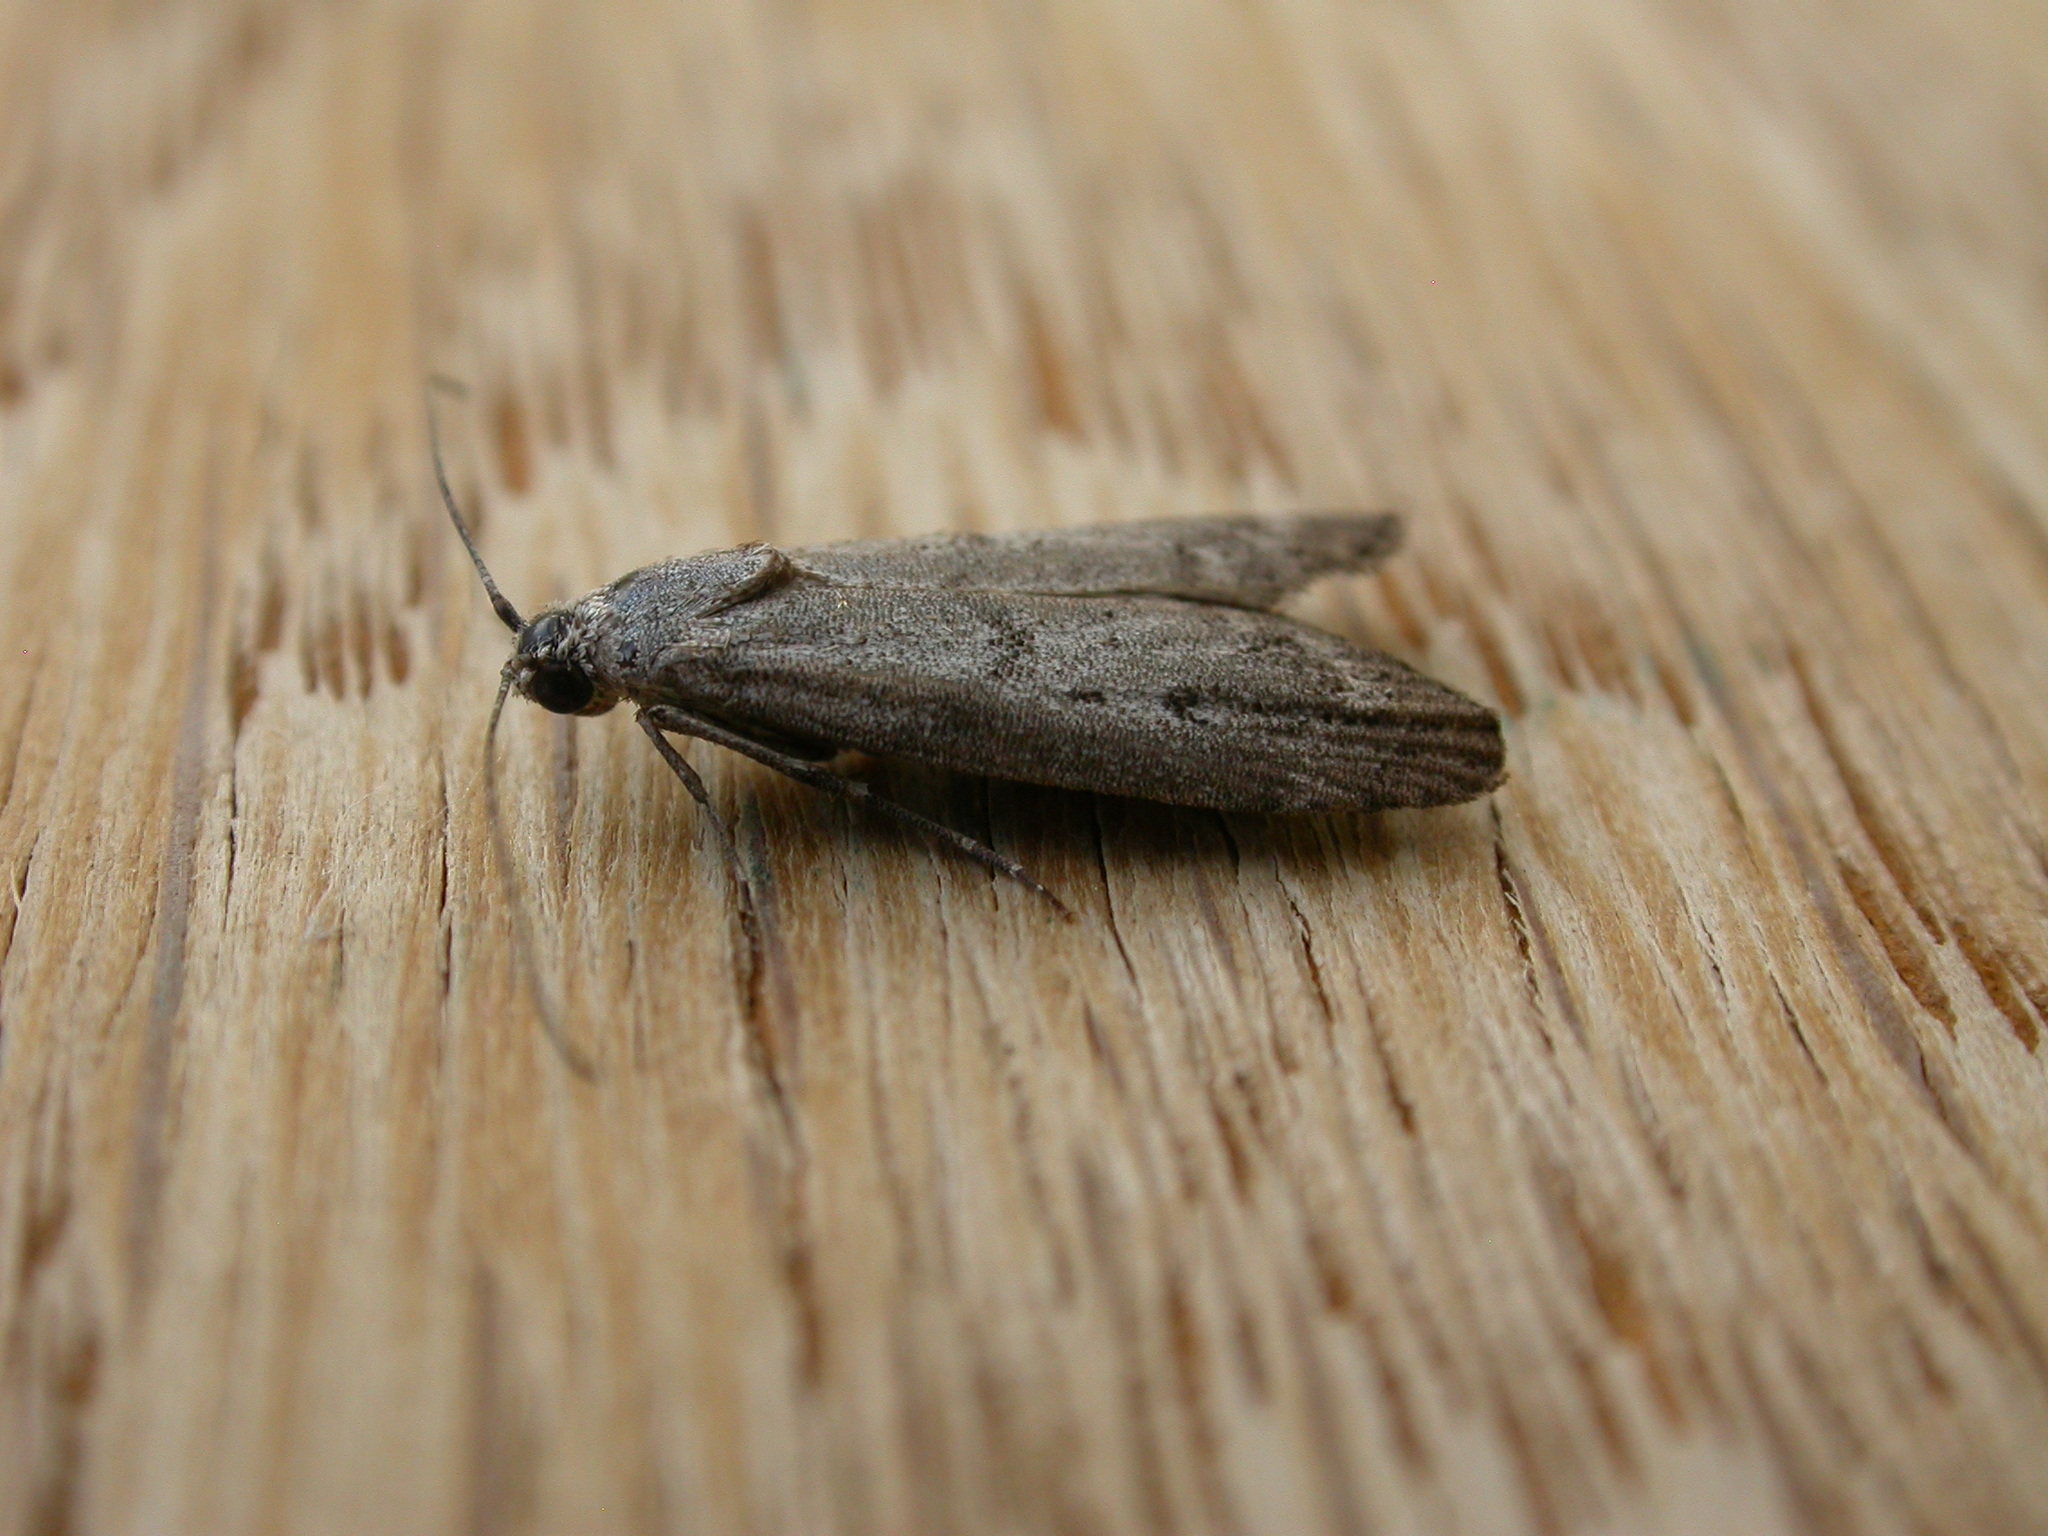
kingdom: Animalia
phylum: Arthropoda
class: Insecta
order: Lepidoptera
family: Pyralidae
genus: Heteromicta
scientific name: Heteromicta pachytera
